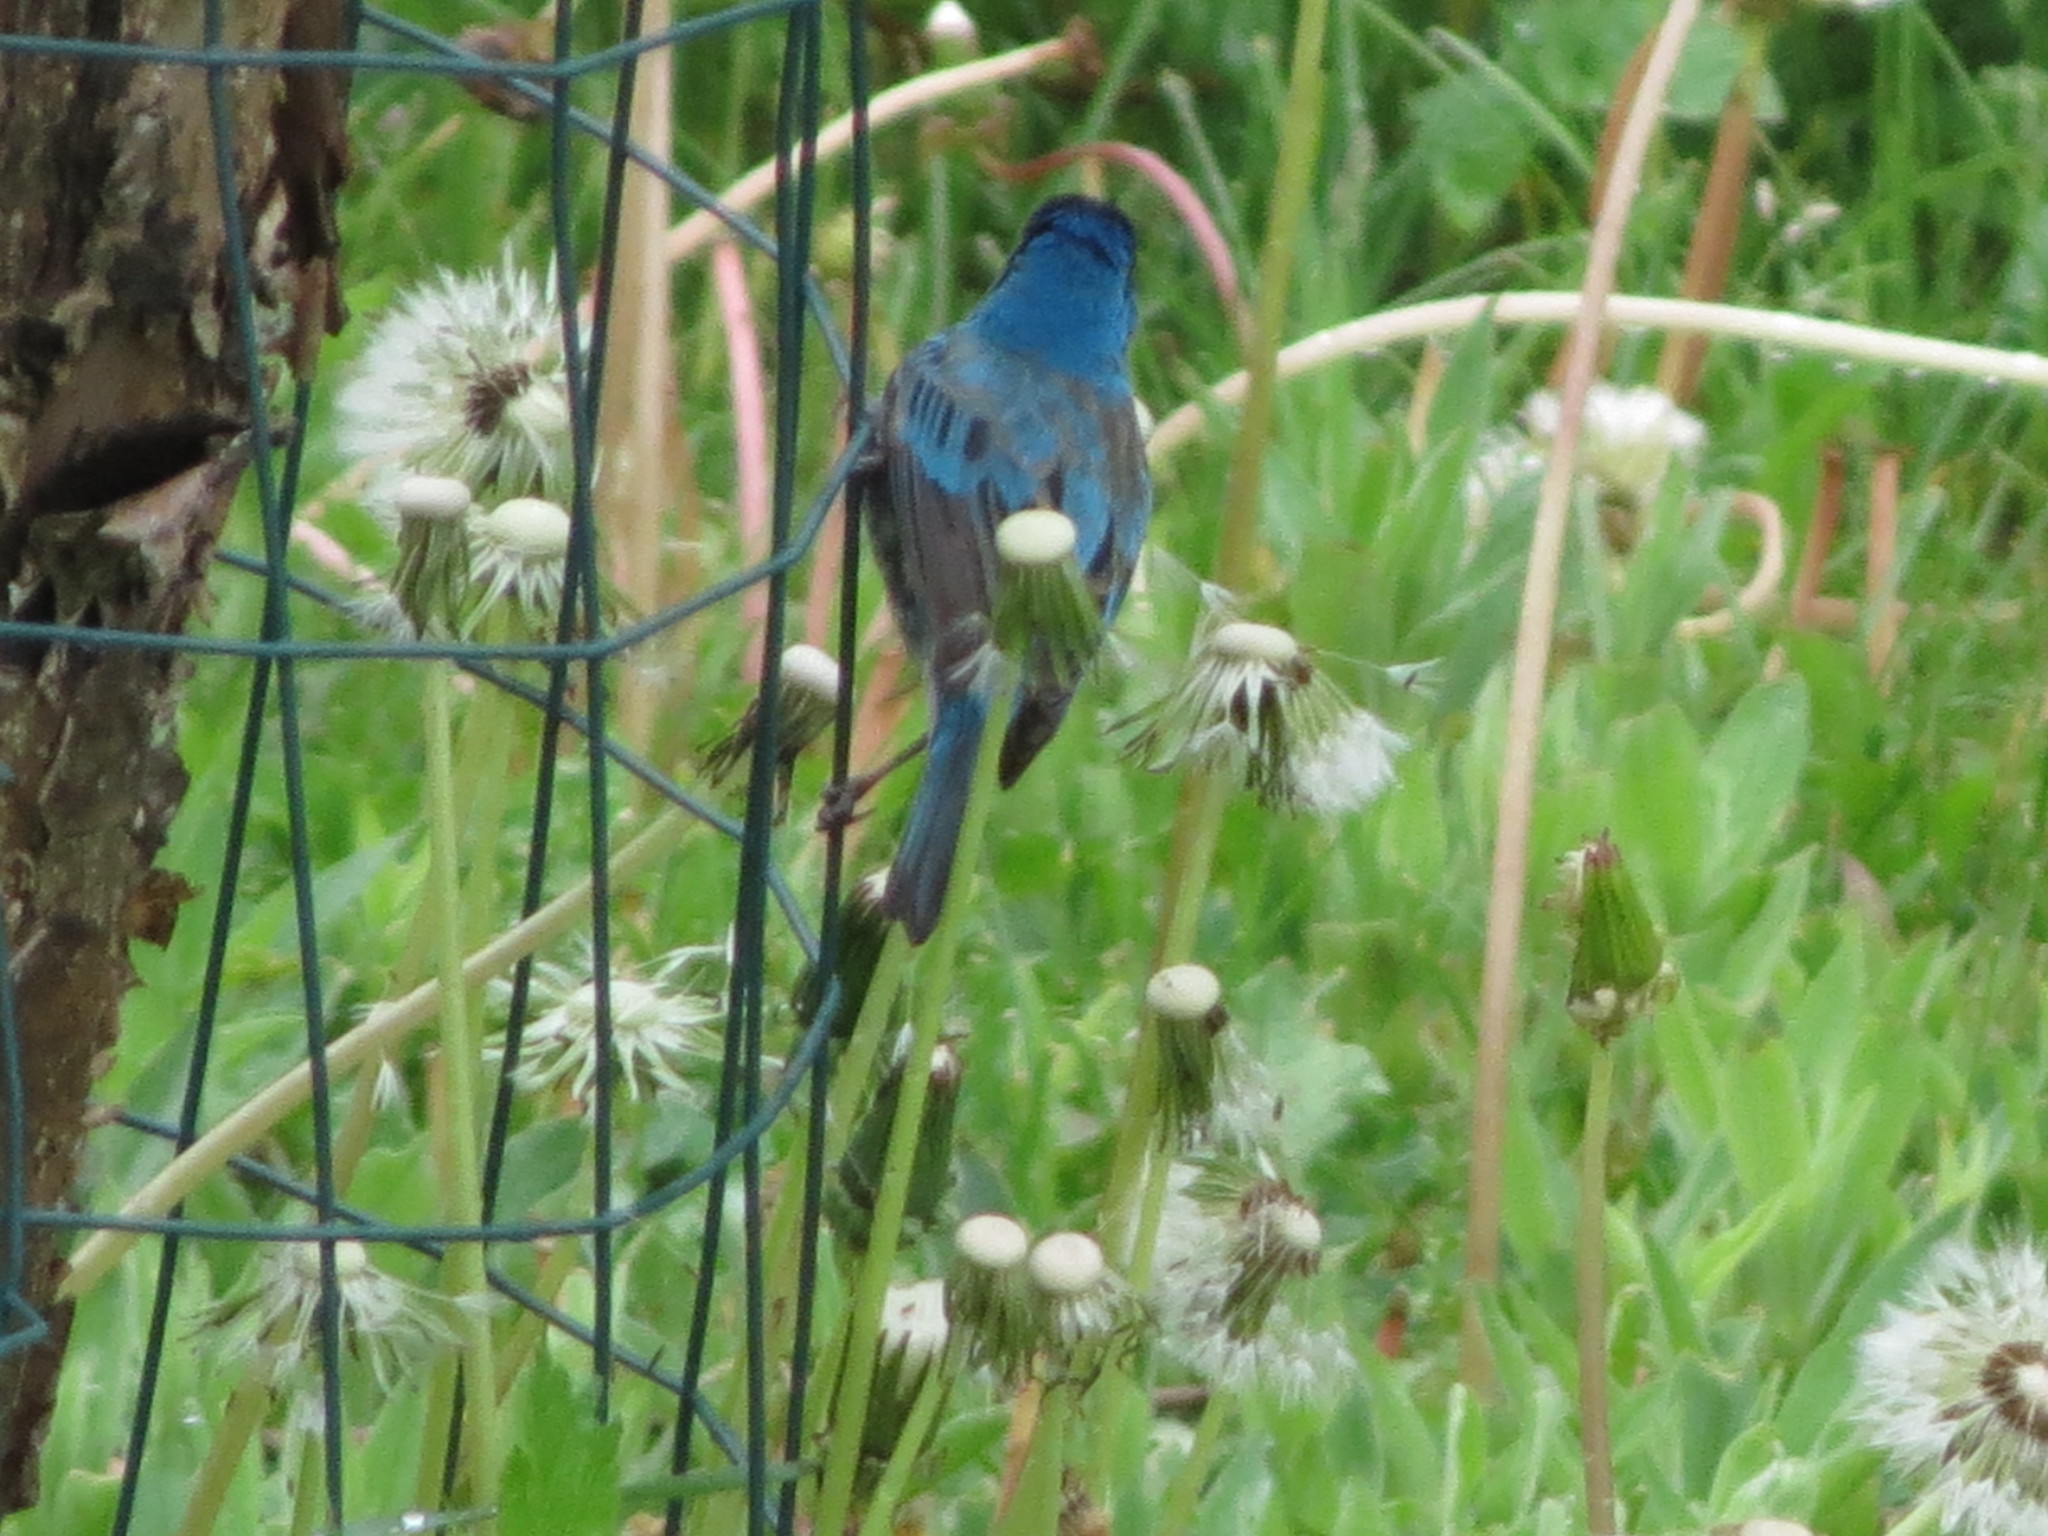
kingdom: Animalia
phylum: Chordata
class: Aves
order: Passeriformes
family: Cardinalidae
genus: Passerina
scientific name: Passerina cyanea
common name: Indigo bunting
